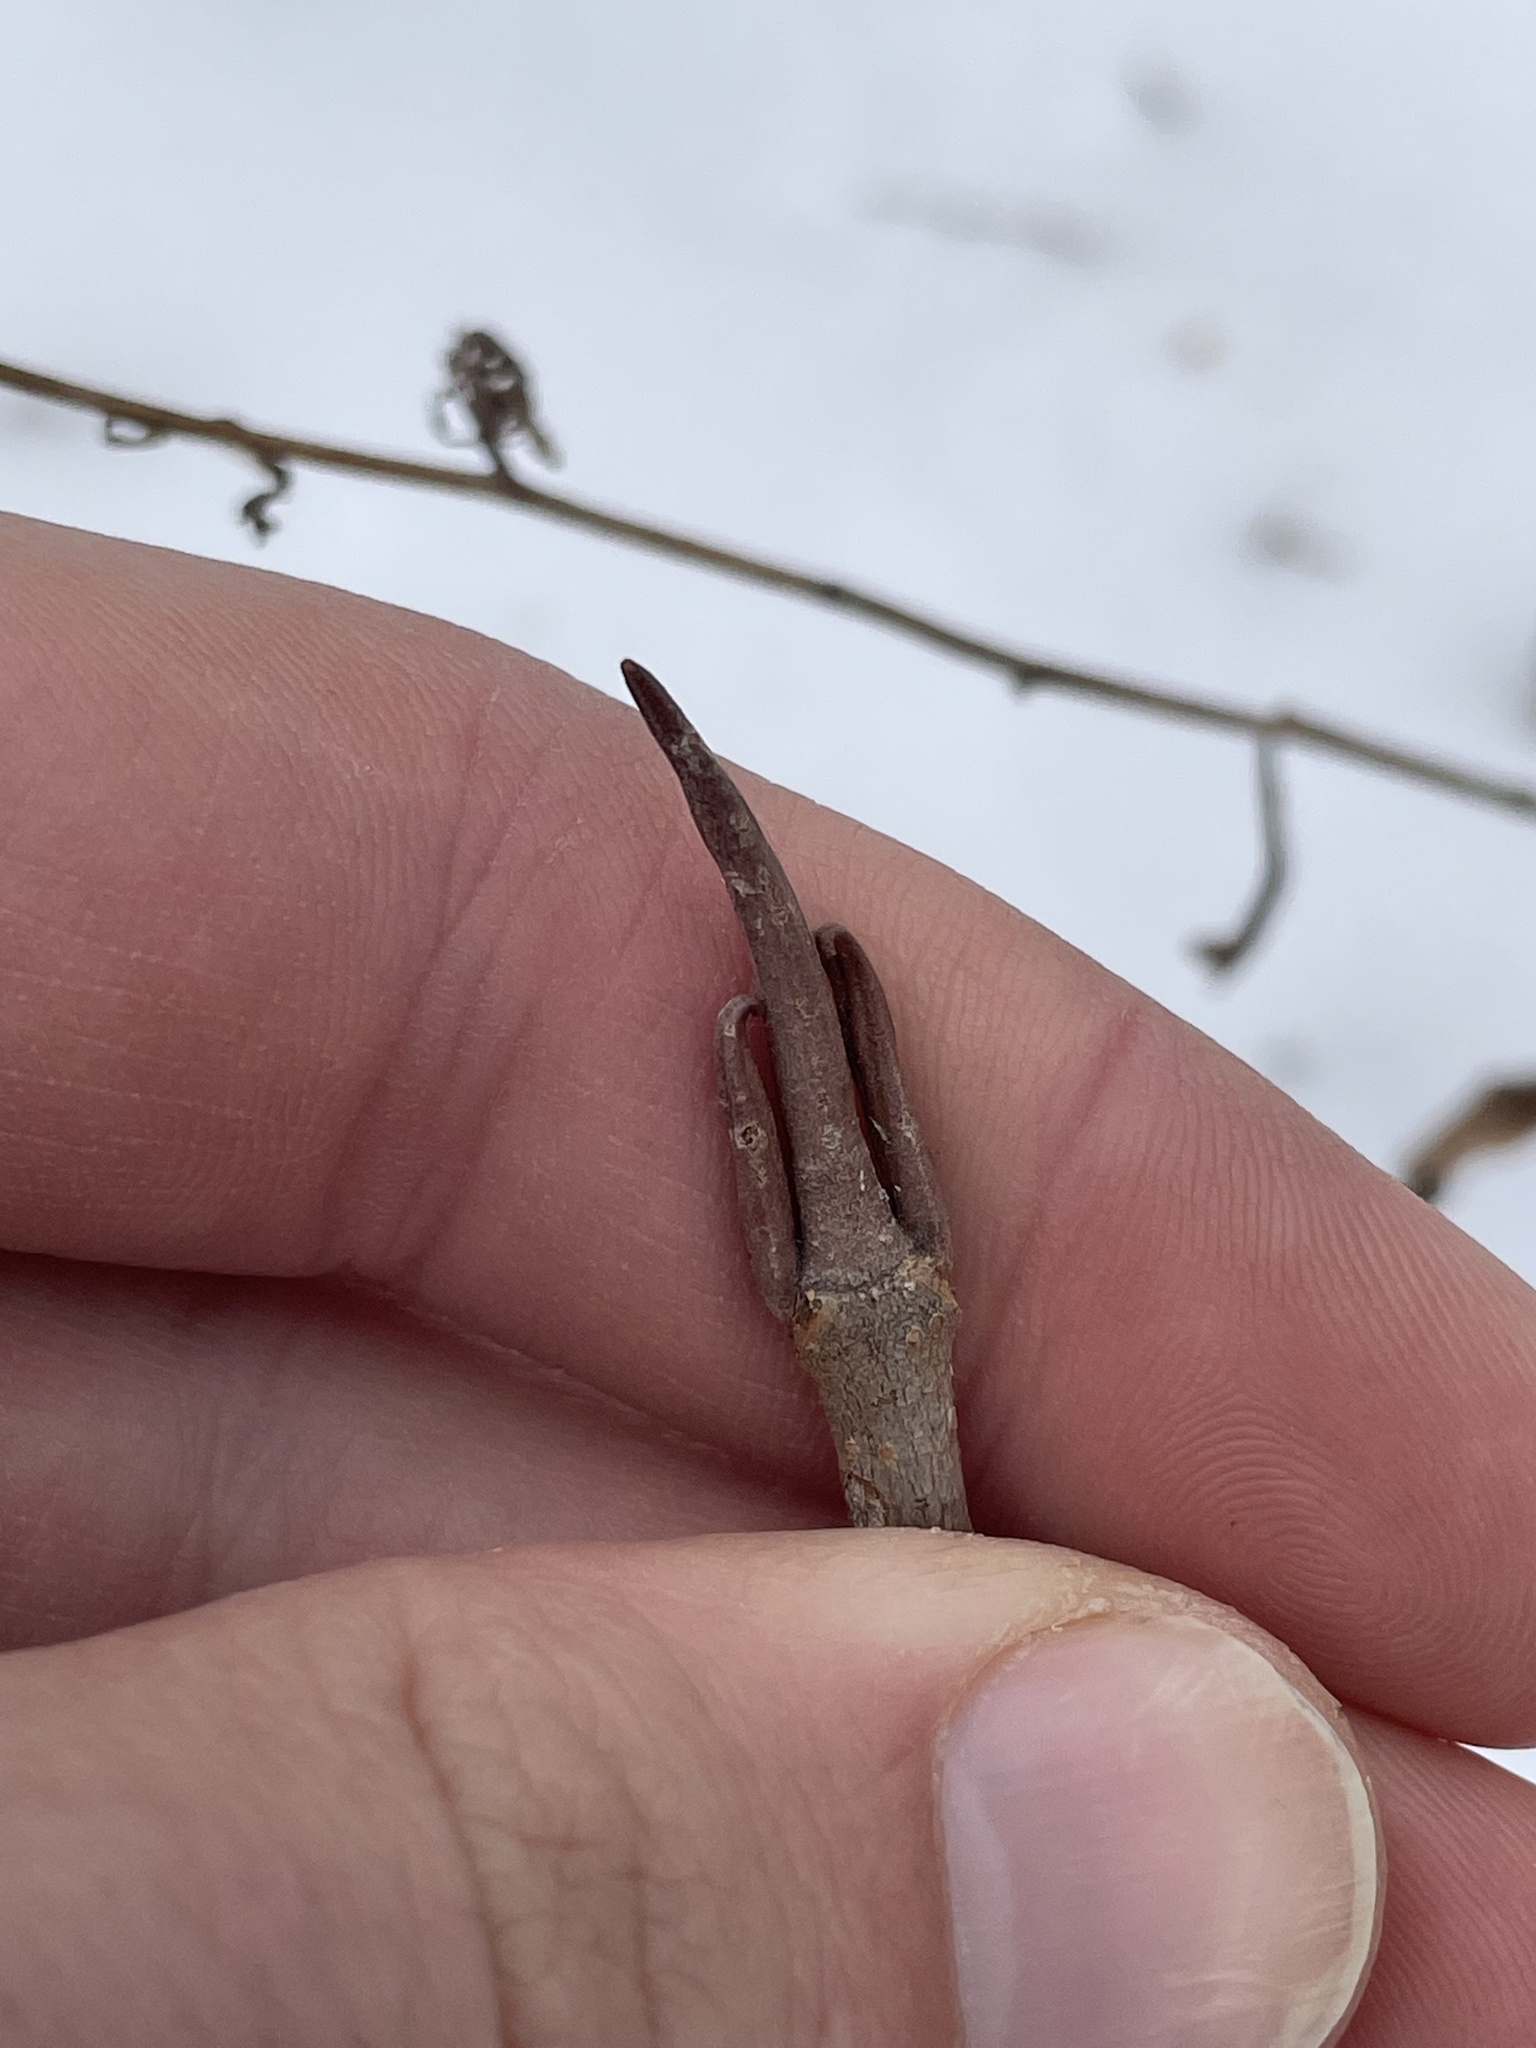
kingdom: Plantae
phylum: Tracheophyta
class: Magnoliopsida
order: Dipsacales
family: Viburnaceae
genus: Viburnum
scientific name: Viburnum lentago
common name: Black haw
